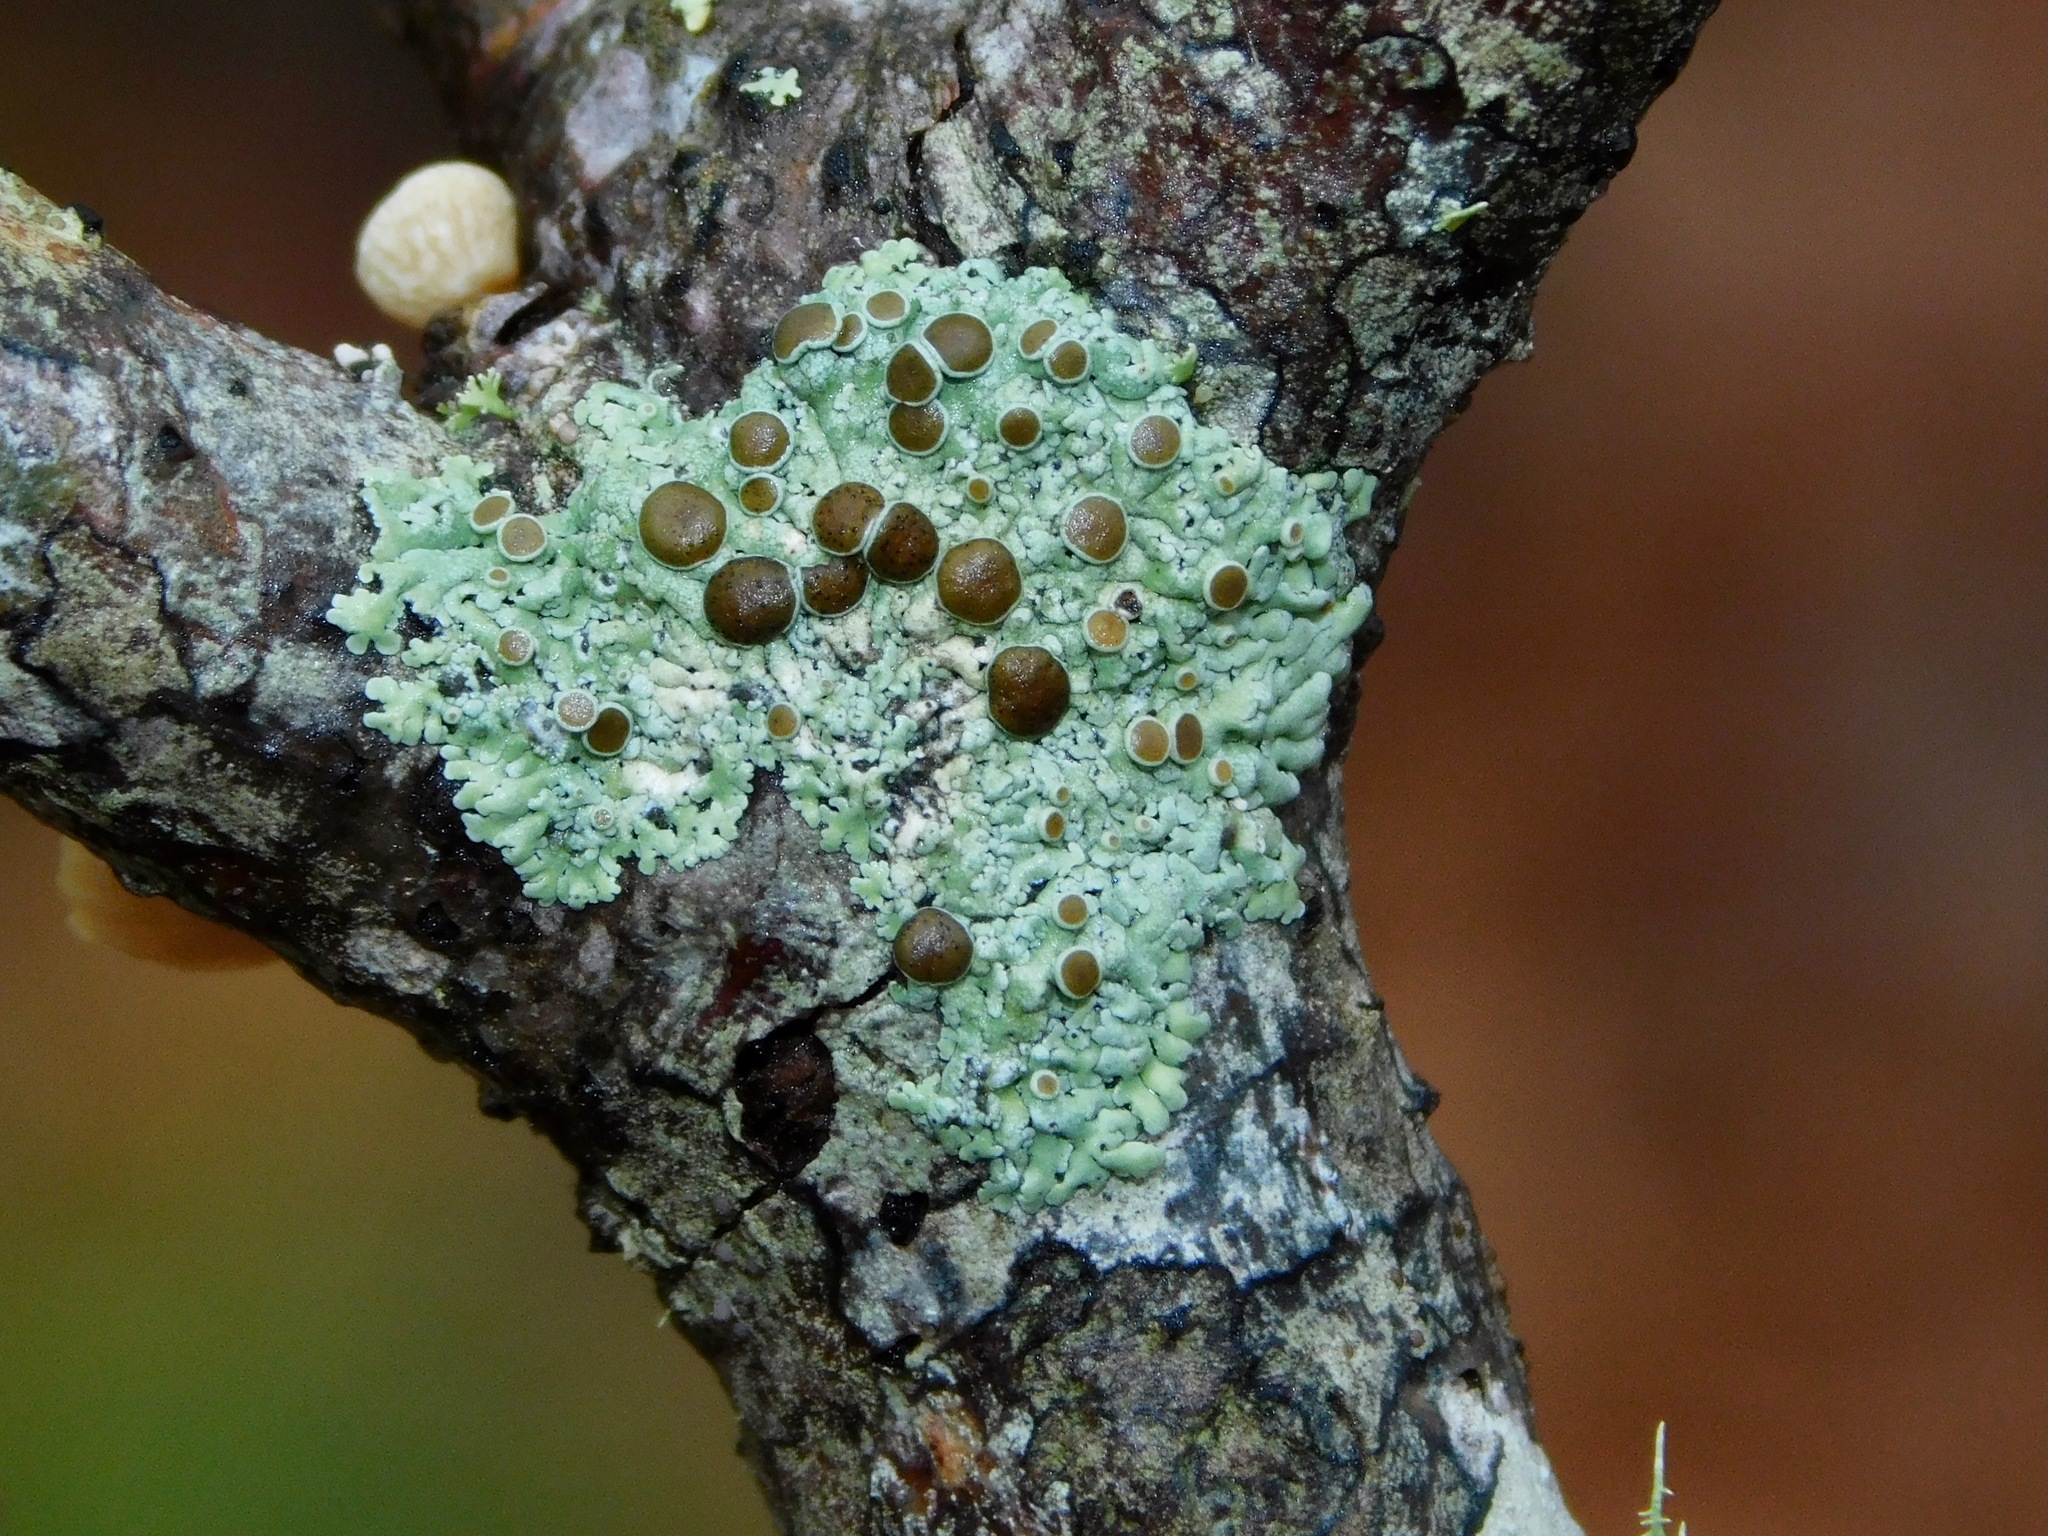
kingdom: Fungi
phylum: Ascomycota
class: Lecanoromycetes
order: Caliciales
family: Physciaceae
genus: Physcia
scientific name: Physcia pumilior
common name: Lesser gray legs
